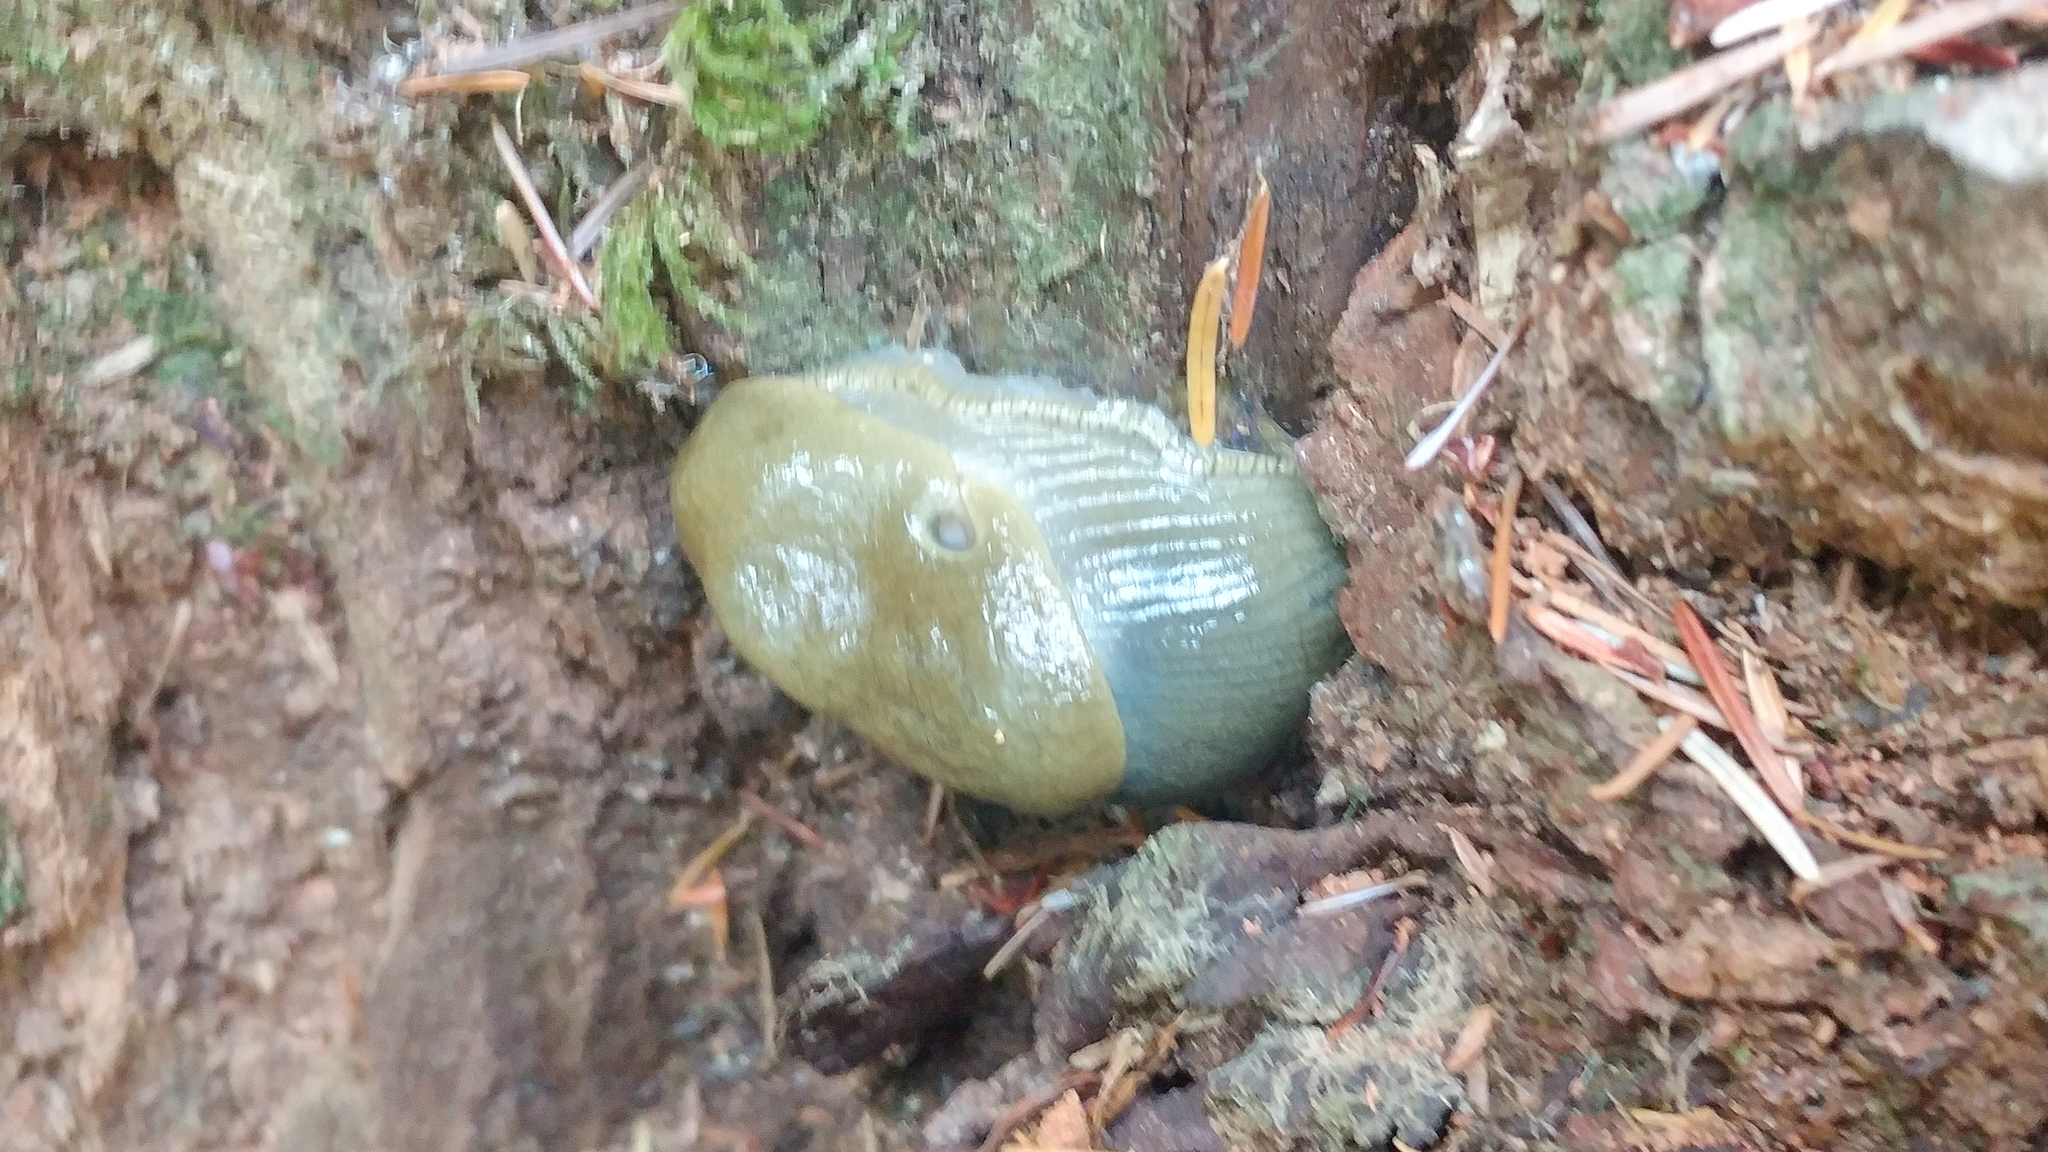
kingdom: Animalia
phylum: Mollusca
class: Gastropoda
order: Stylommatophora
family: Ariolimacidae
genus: Ariolimax
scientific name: Ariolimax columbianus
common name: Pacific banana slug
